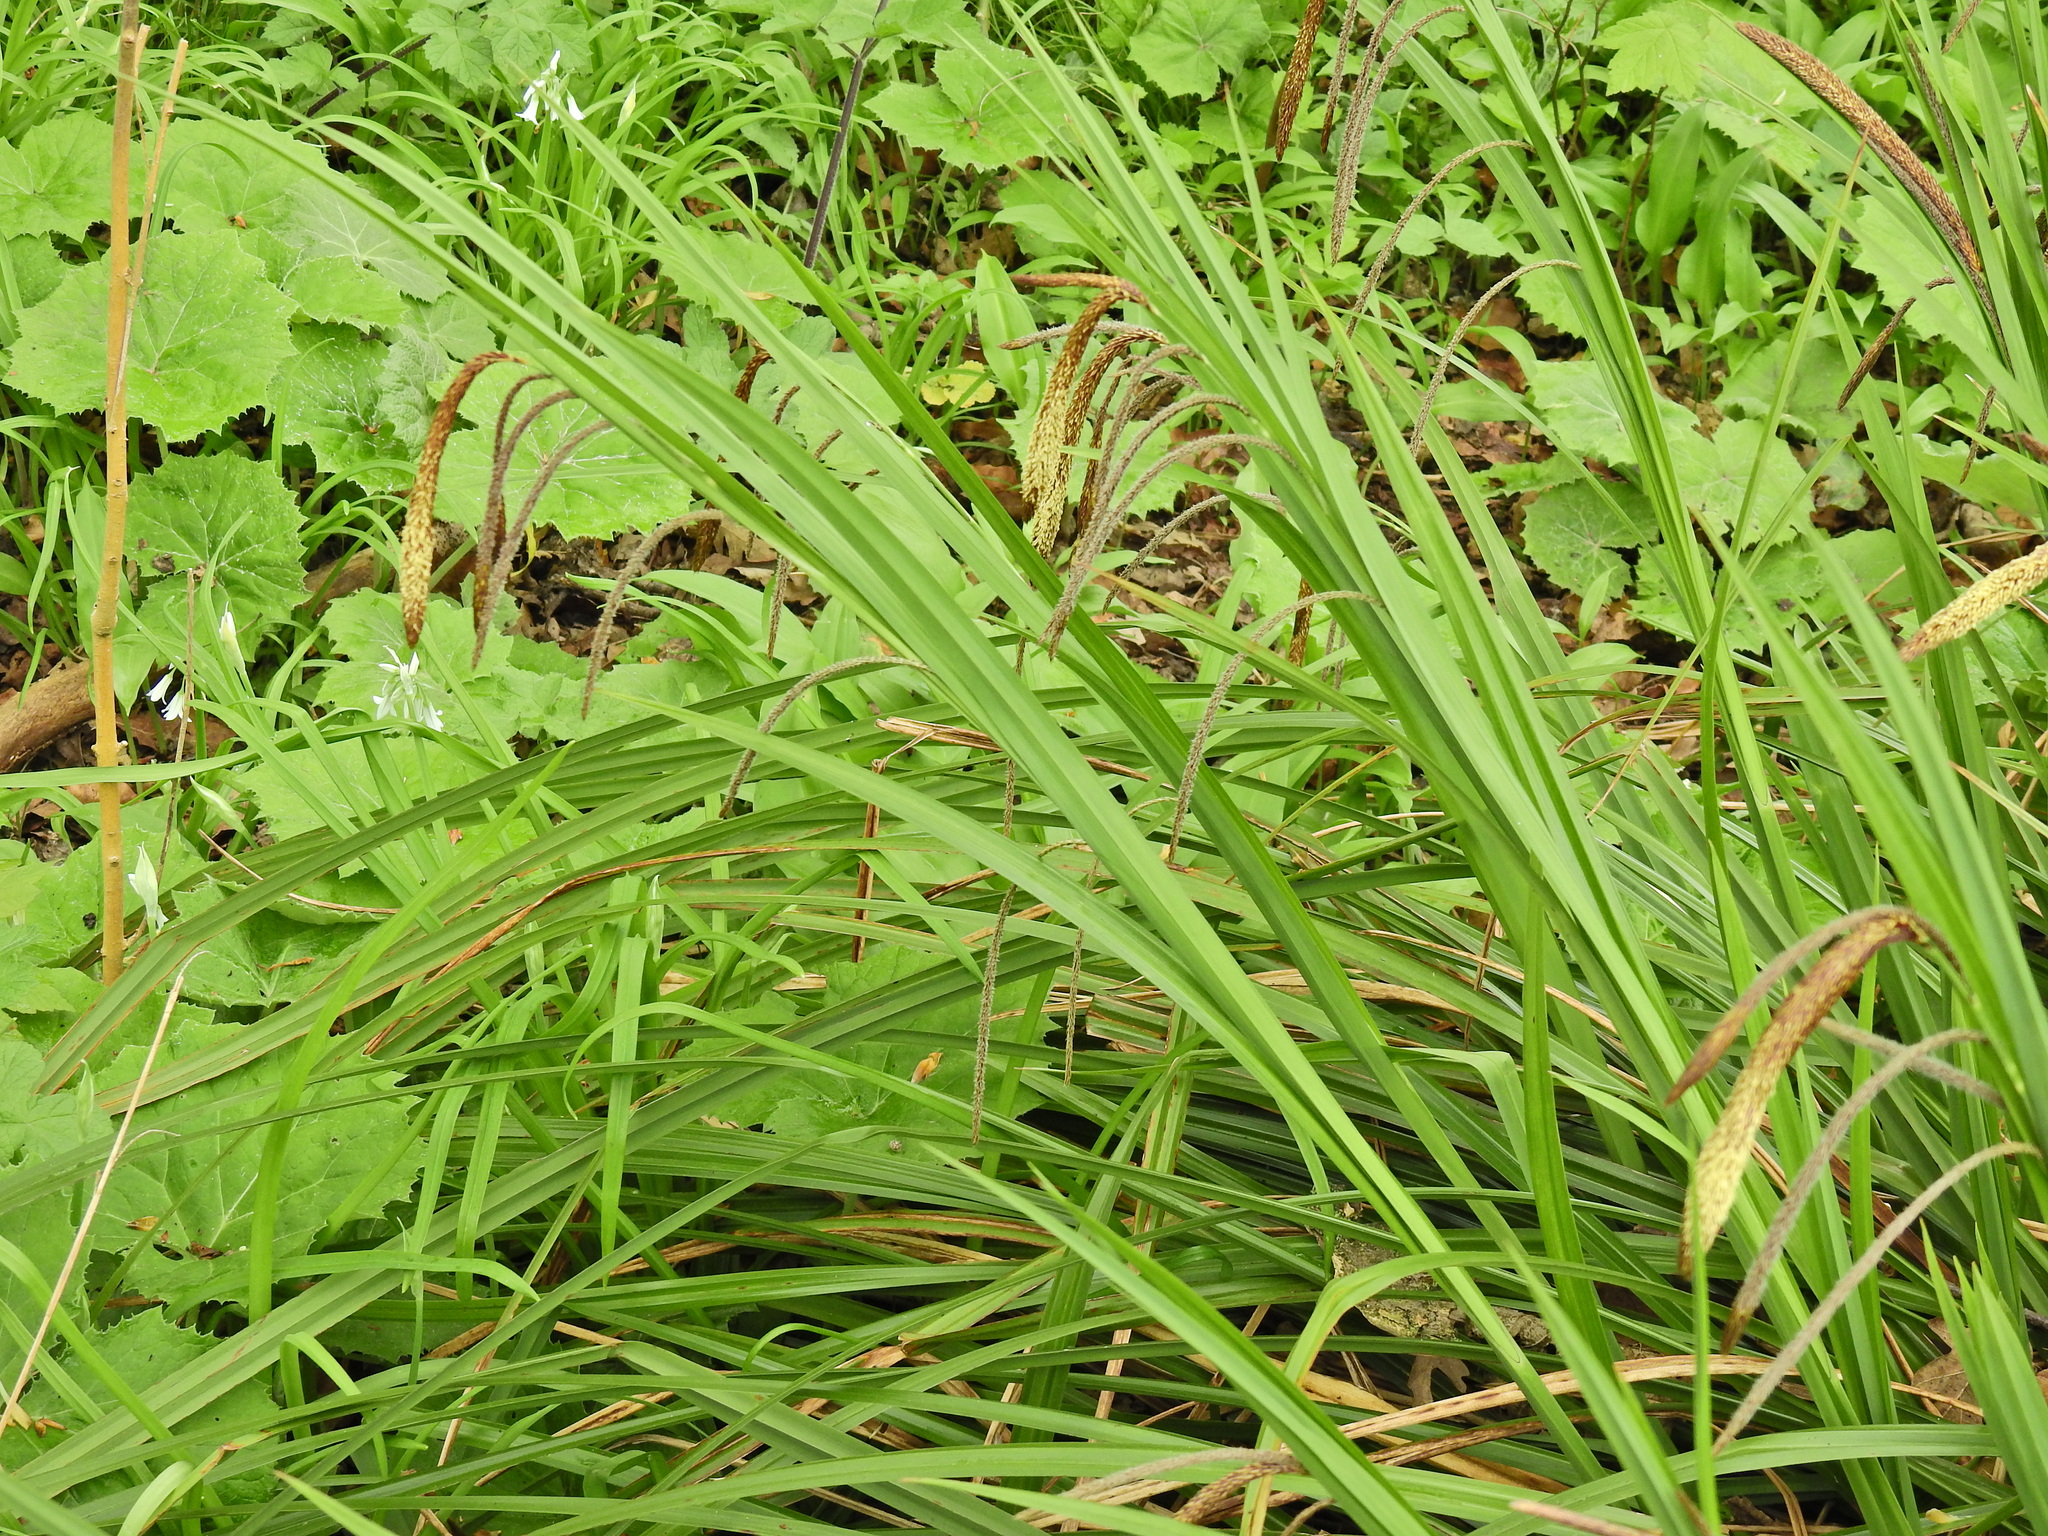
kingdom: Plantae
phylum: Tracheophyta
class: Liliopsida
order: Poales
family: Cyperaceae
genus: Carex
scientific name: Carex pendula
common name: Pendulous sedge
